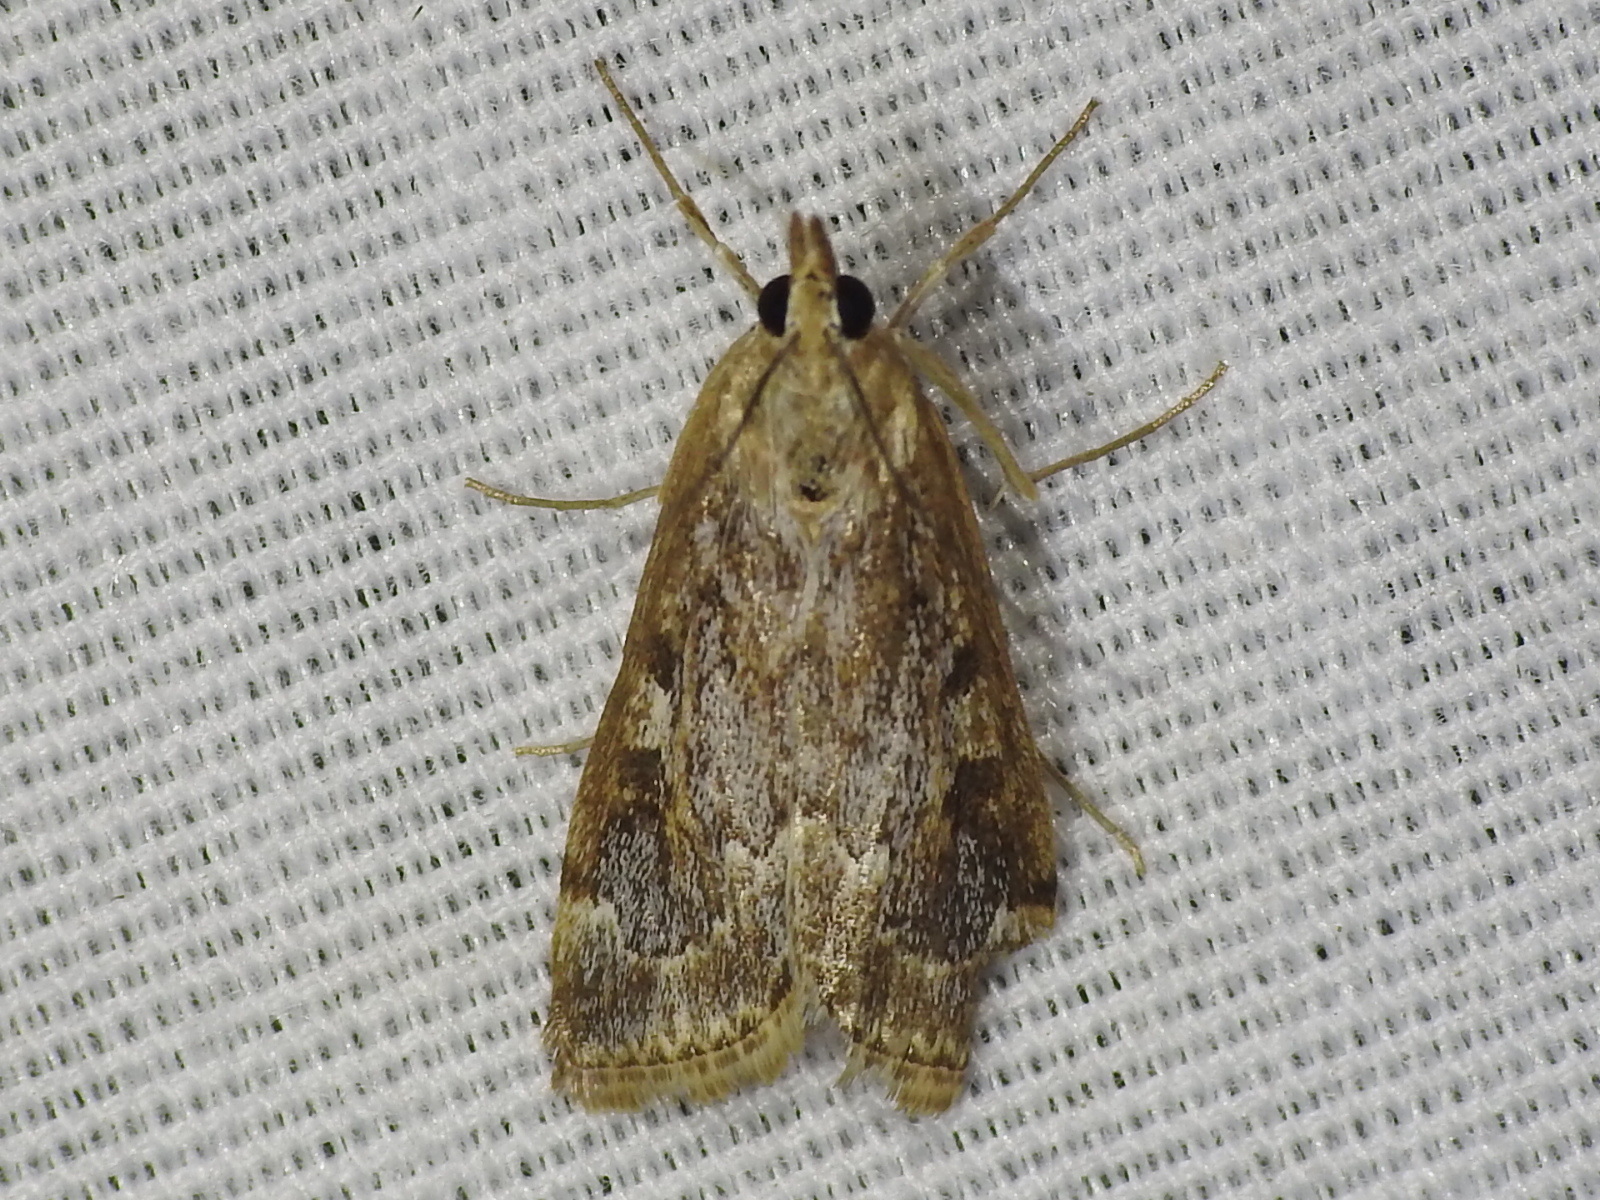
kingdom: Animalia
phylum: Arthropoda
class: Insecta
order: Lepidoptera
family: Crambidae
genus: Loxostege
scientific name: Loxostege allectalis
